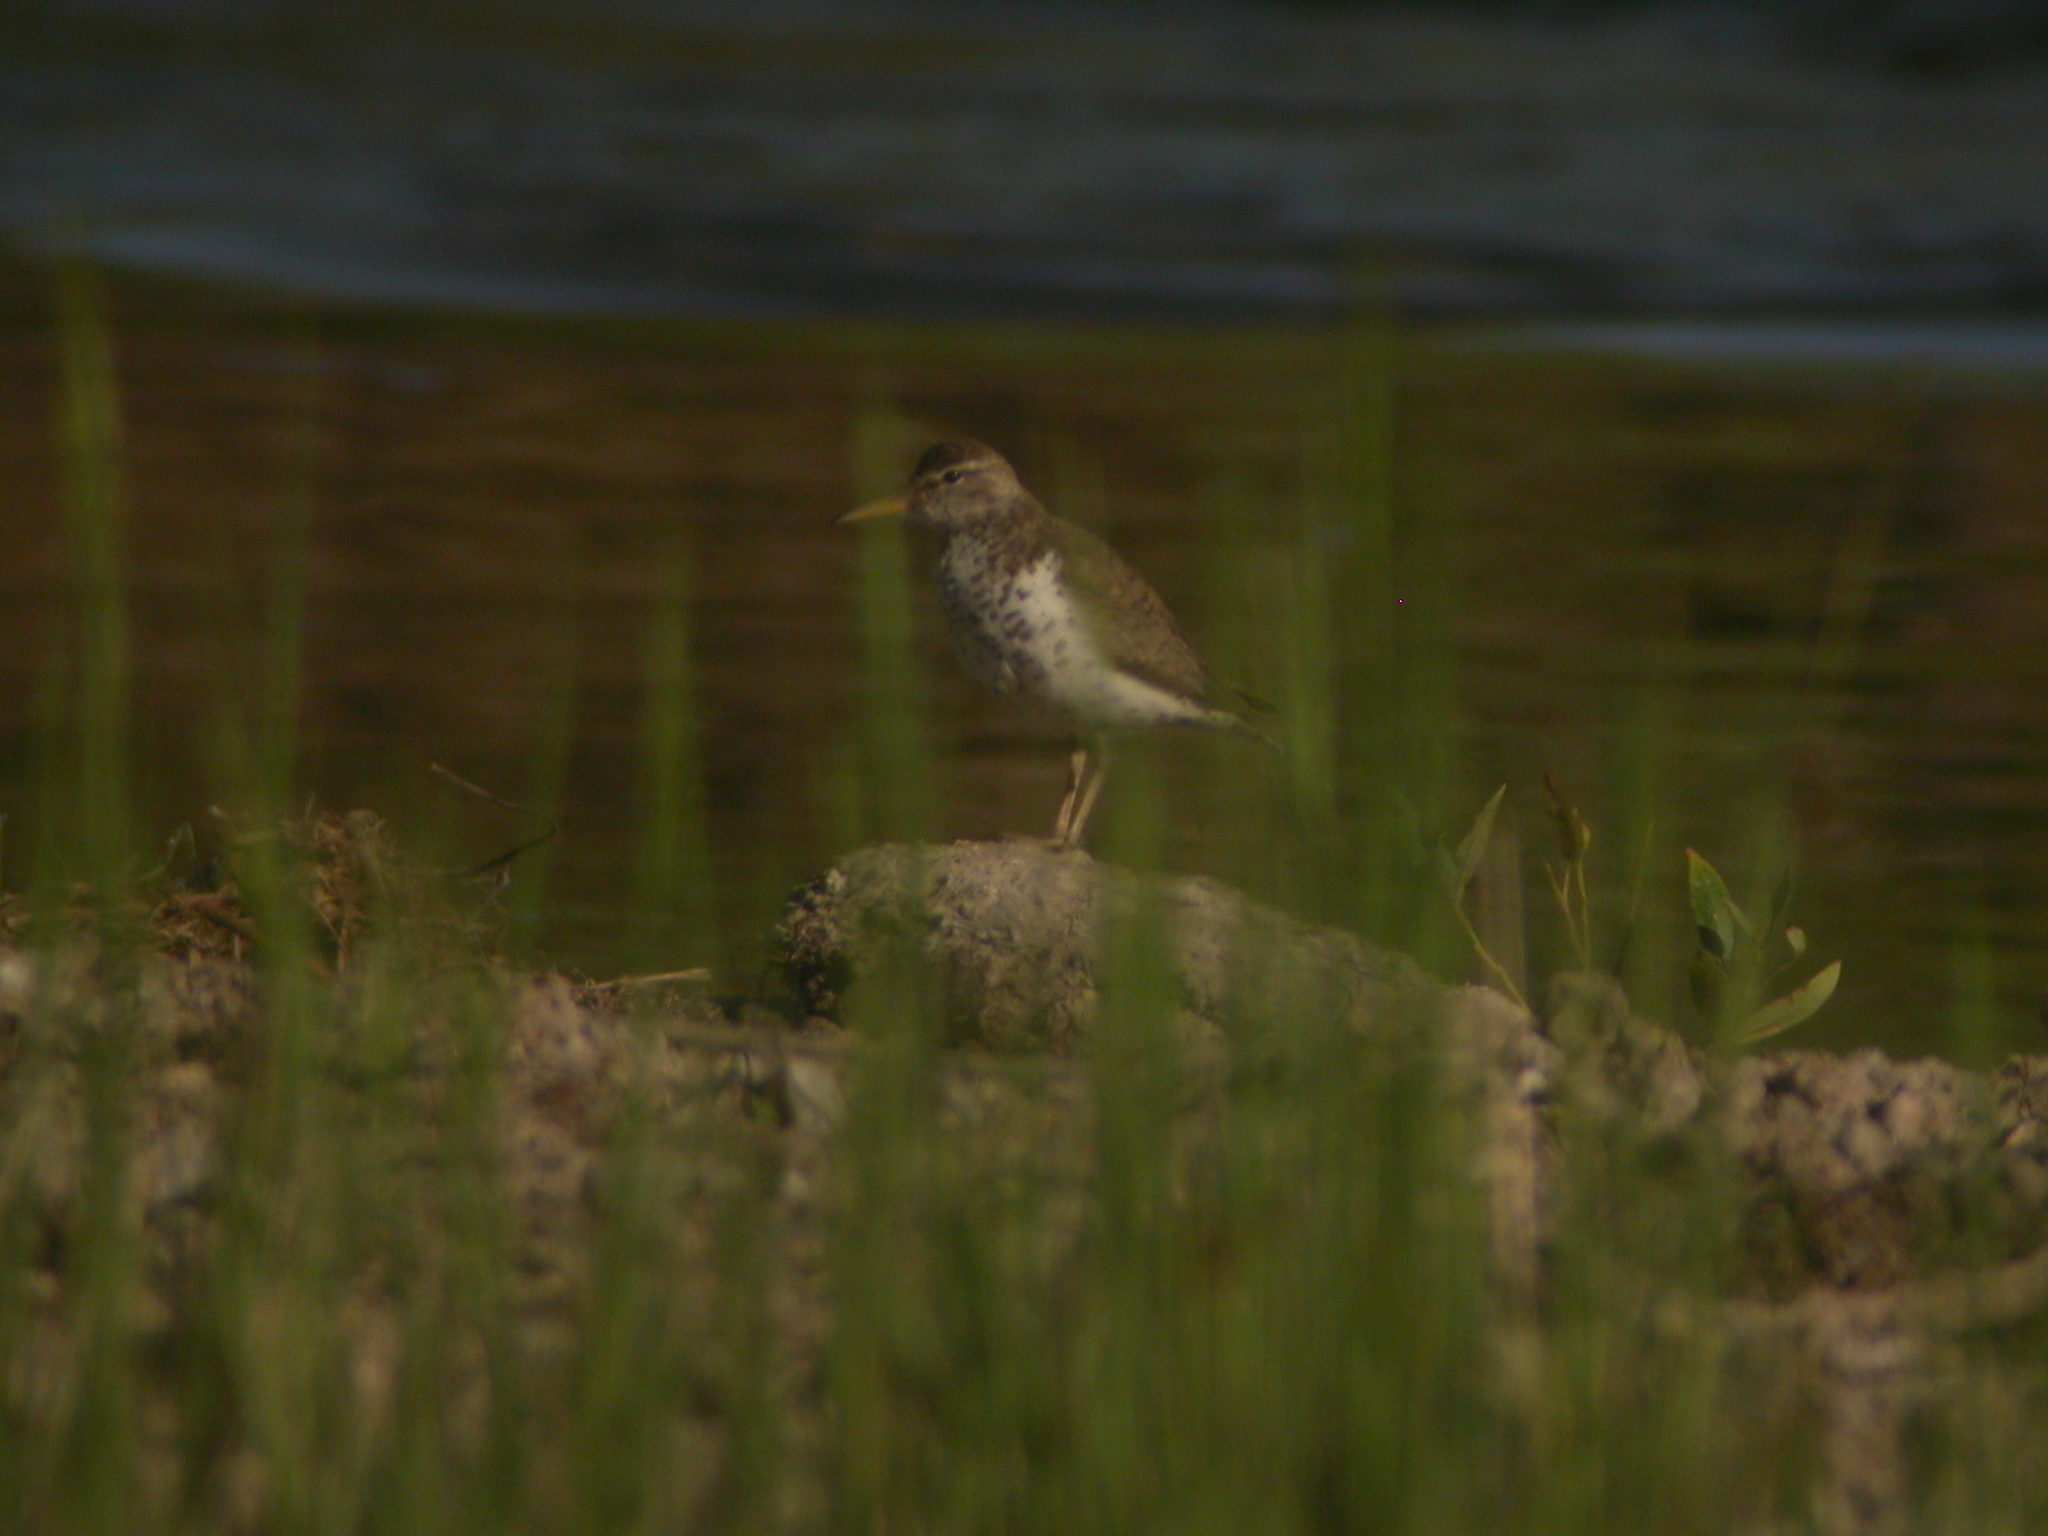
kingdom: Animalia
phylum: Chordata
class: Aves
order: Charadriiformes
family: Scolopacidae
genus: Actitis
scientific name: Actitis macularius
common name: Spotted sandpiper
